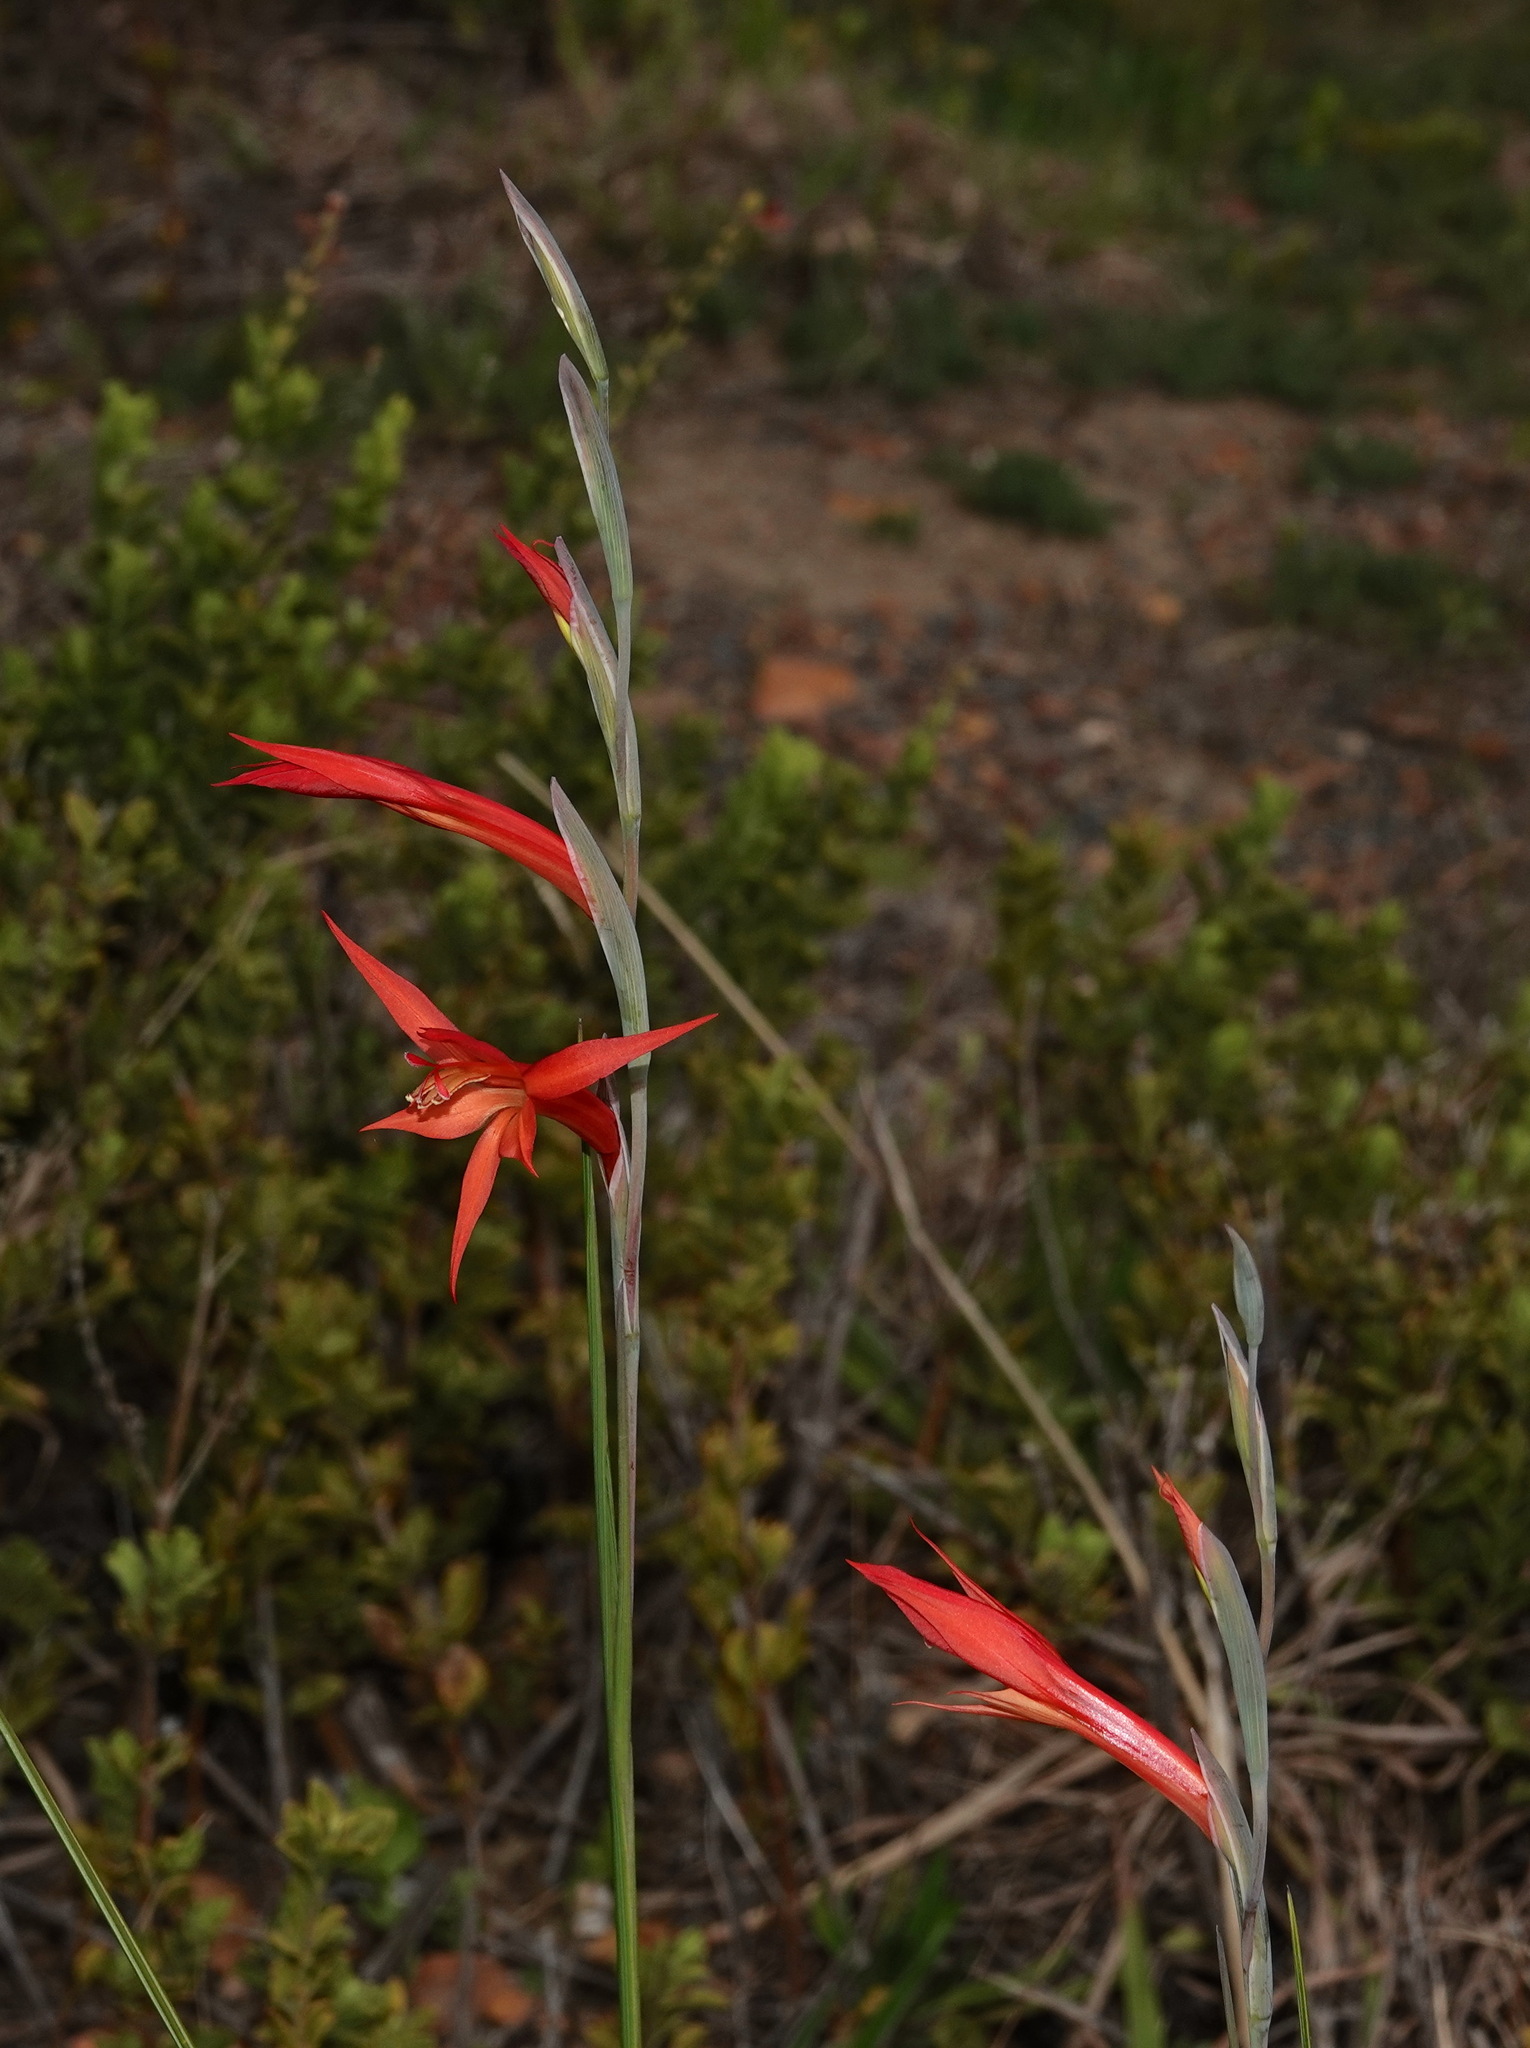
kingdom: Plantae
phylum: Tracheophyta
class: Liliopsida
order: Asparagales
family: Iridaceae
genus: Gladiolus
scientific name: Gladiolus quadrangularis
